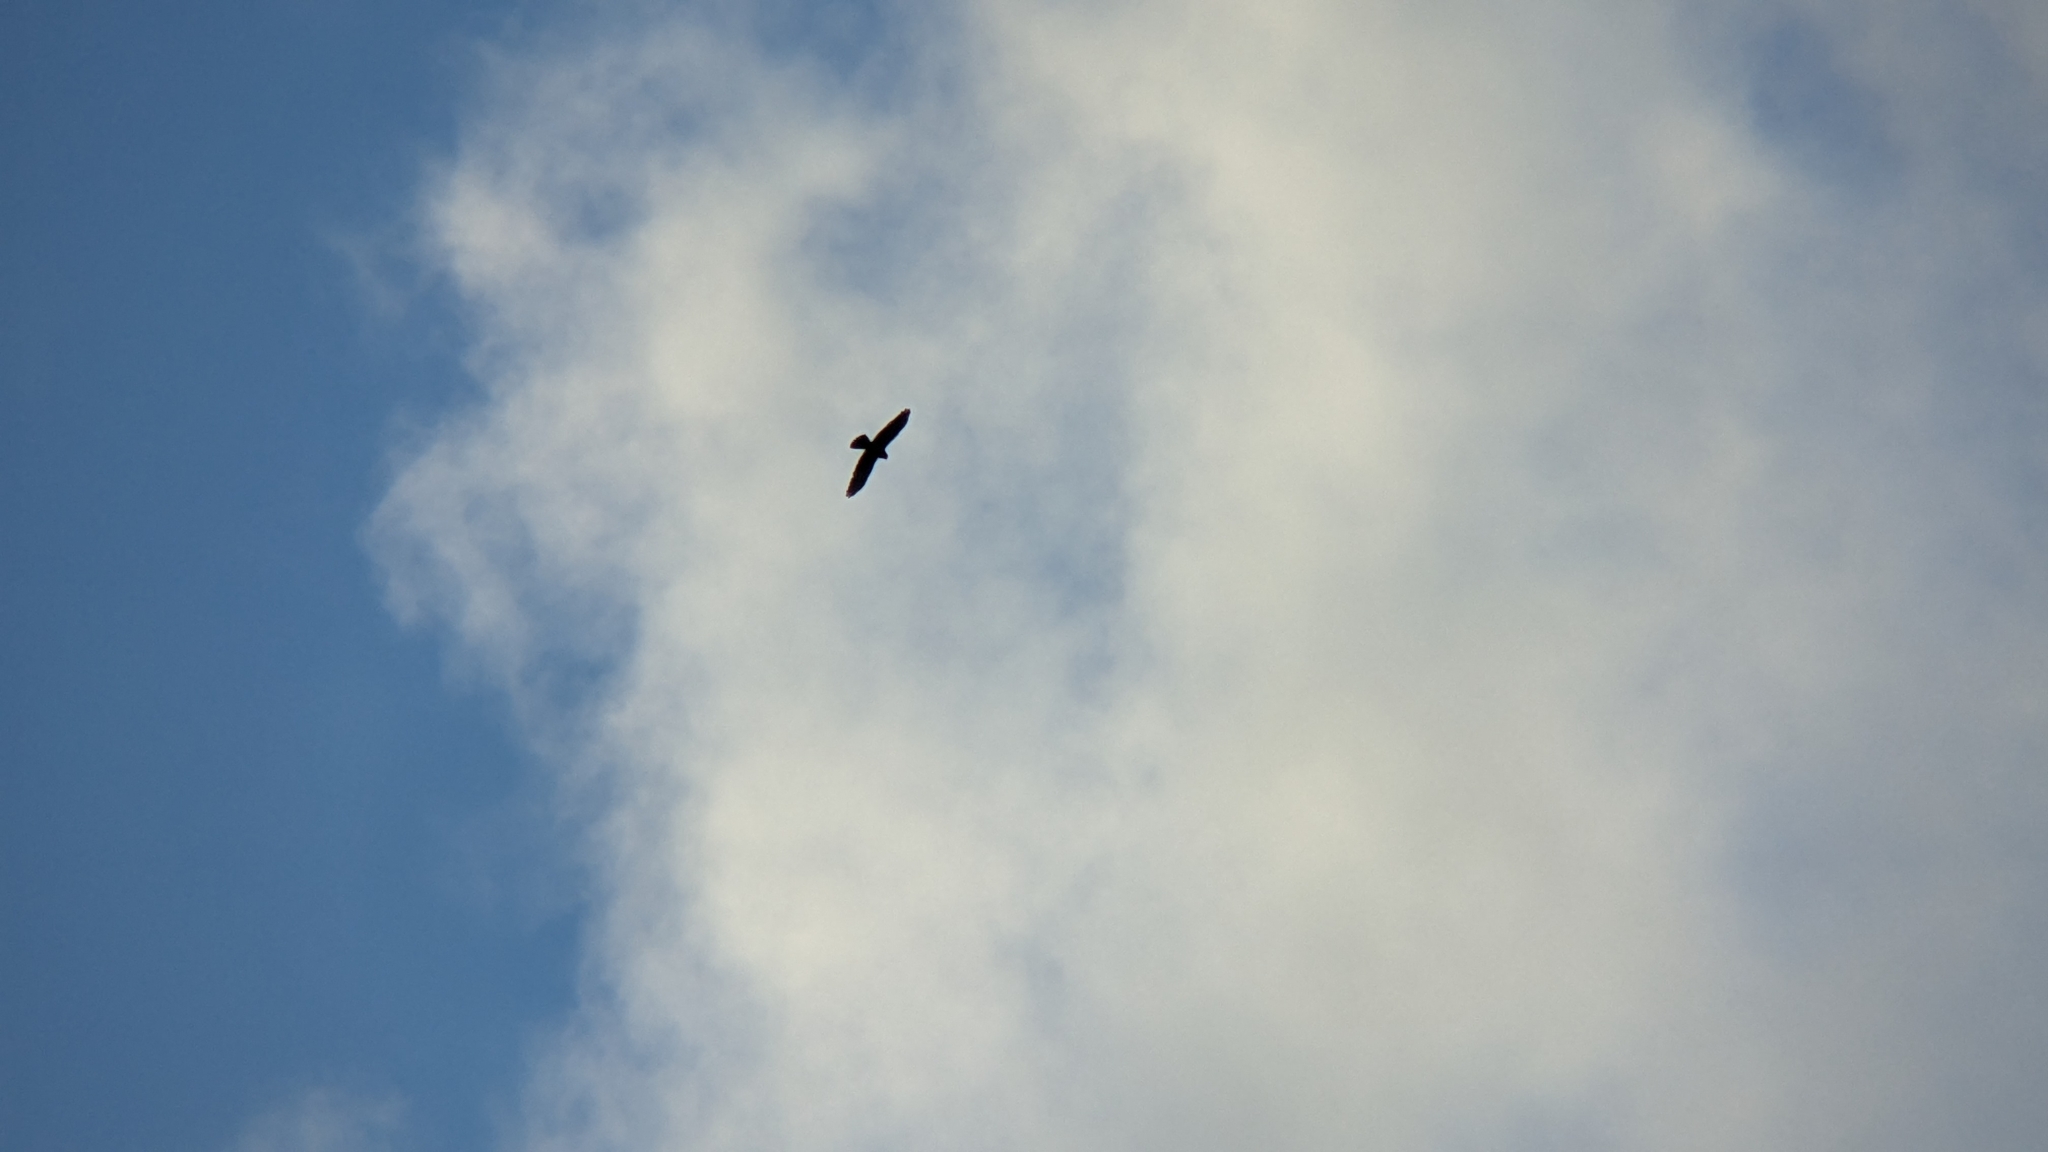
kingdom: Animalia
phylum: Chordata
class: Aves
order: Accipitriformes
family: Accipitridae
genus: Butastur
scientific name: Butastur indicus
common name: Grey-faced buzzard
